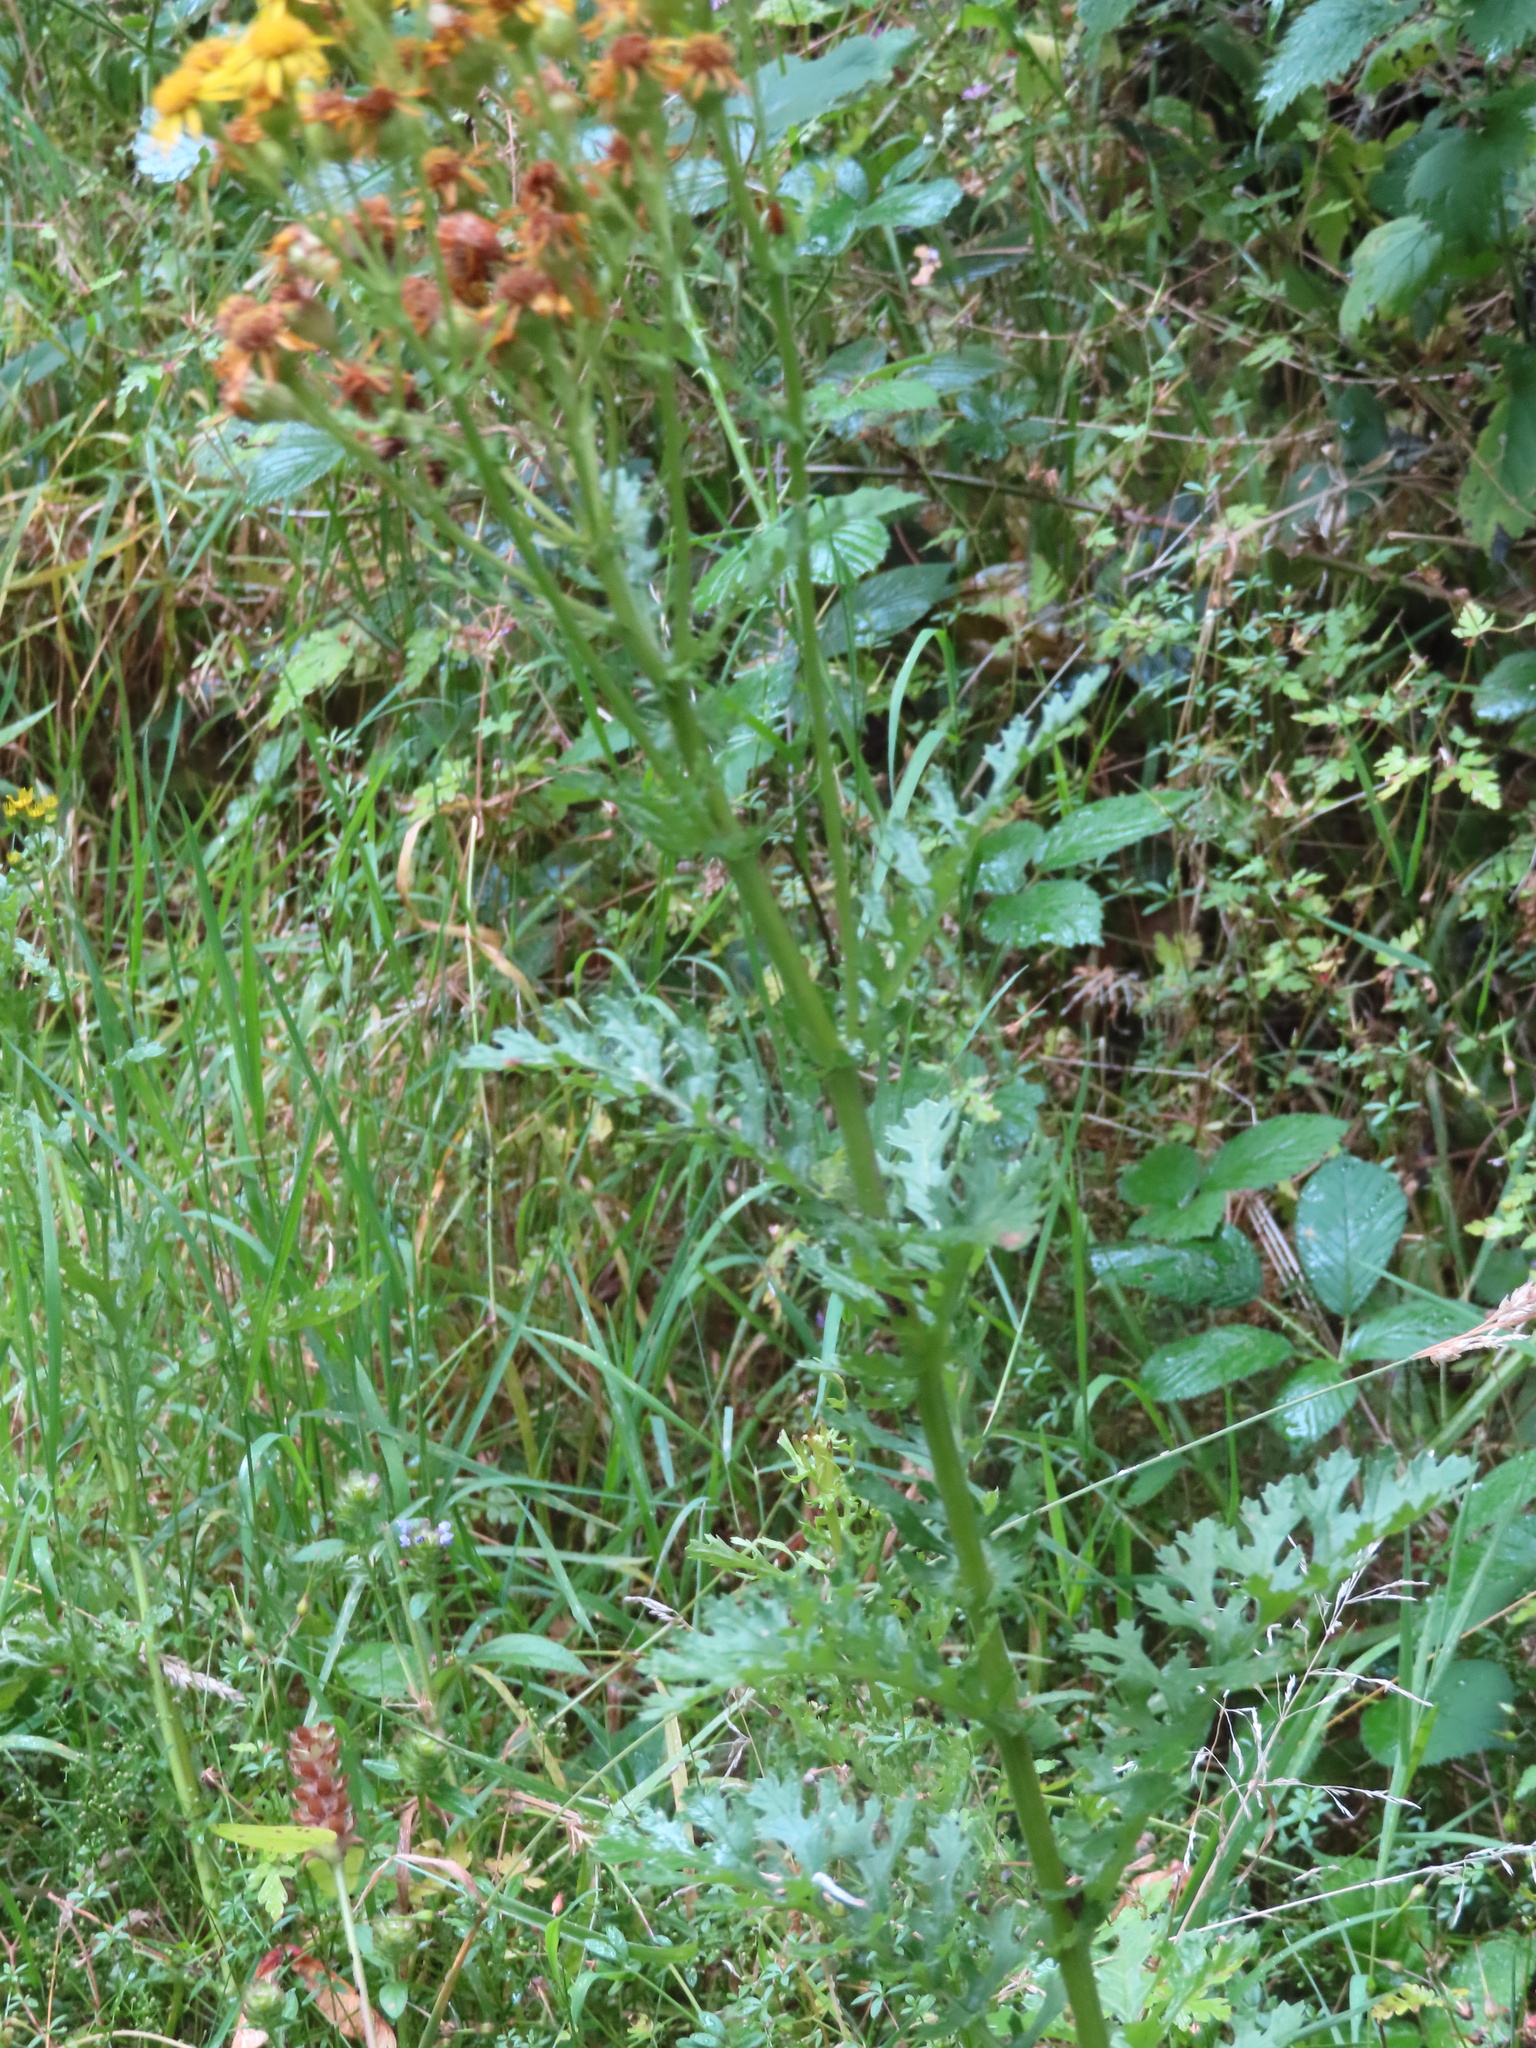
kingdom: Plantae
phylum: Tracheophyta
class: Magnoliopsida
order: Asterales
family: Asteraceae
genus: Jacobaea
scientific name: Jacobaea vulgaris
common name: Stinking willie
